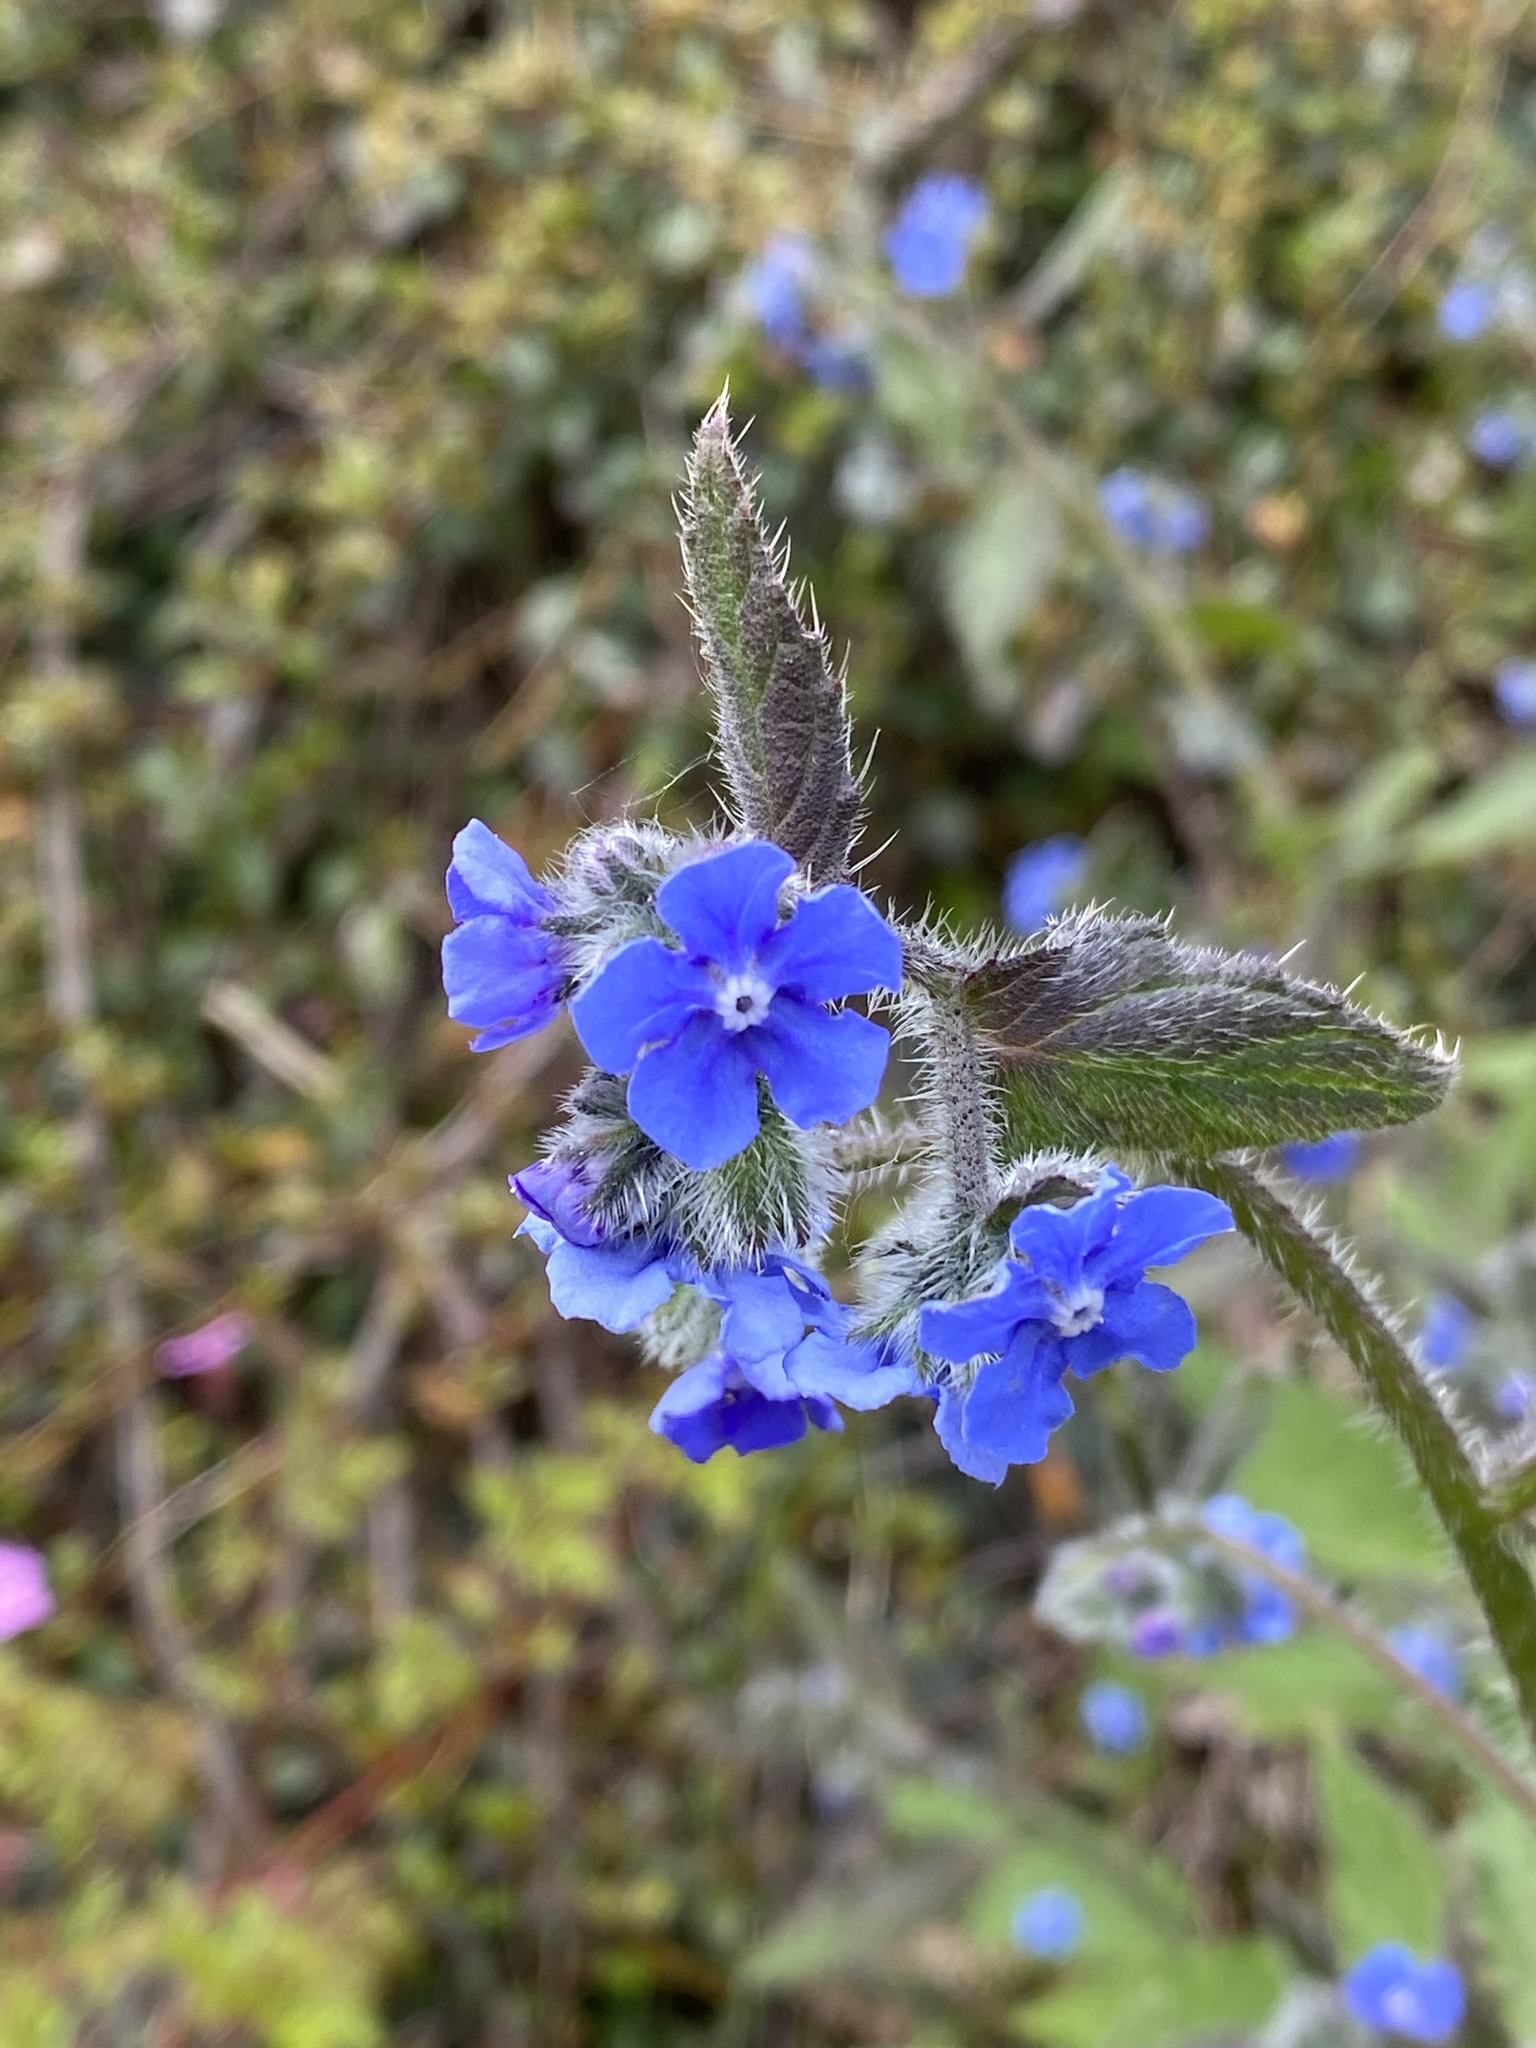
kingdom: Plantae
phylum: Tracheophyta
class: Magnoliopsida
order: Boraginales
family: Boraginaceae
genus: Pentaglottis
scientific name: Pentaglottis sempervirens
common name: Green alkanet
